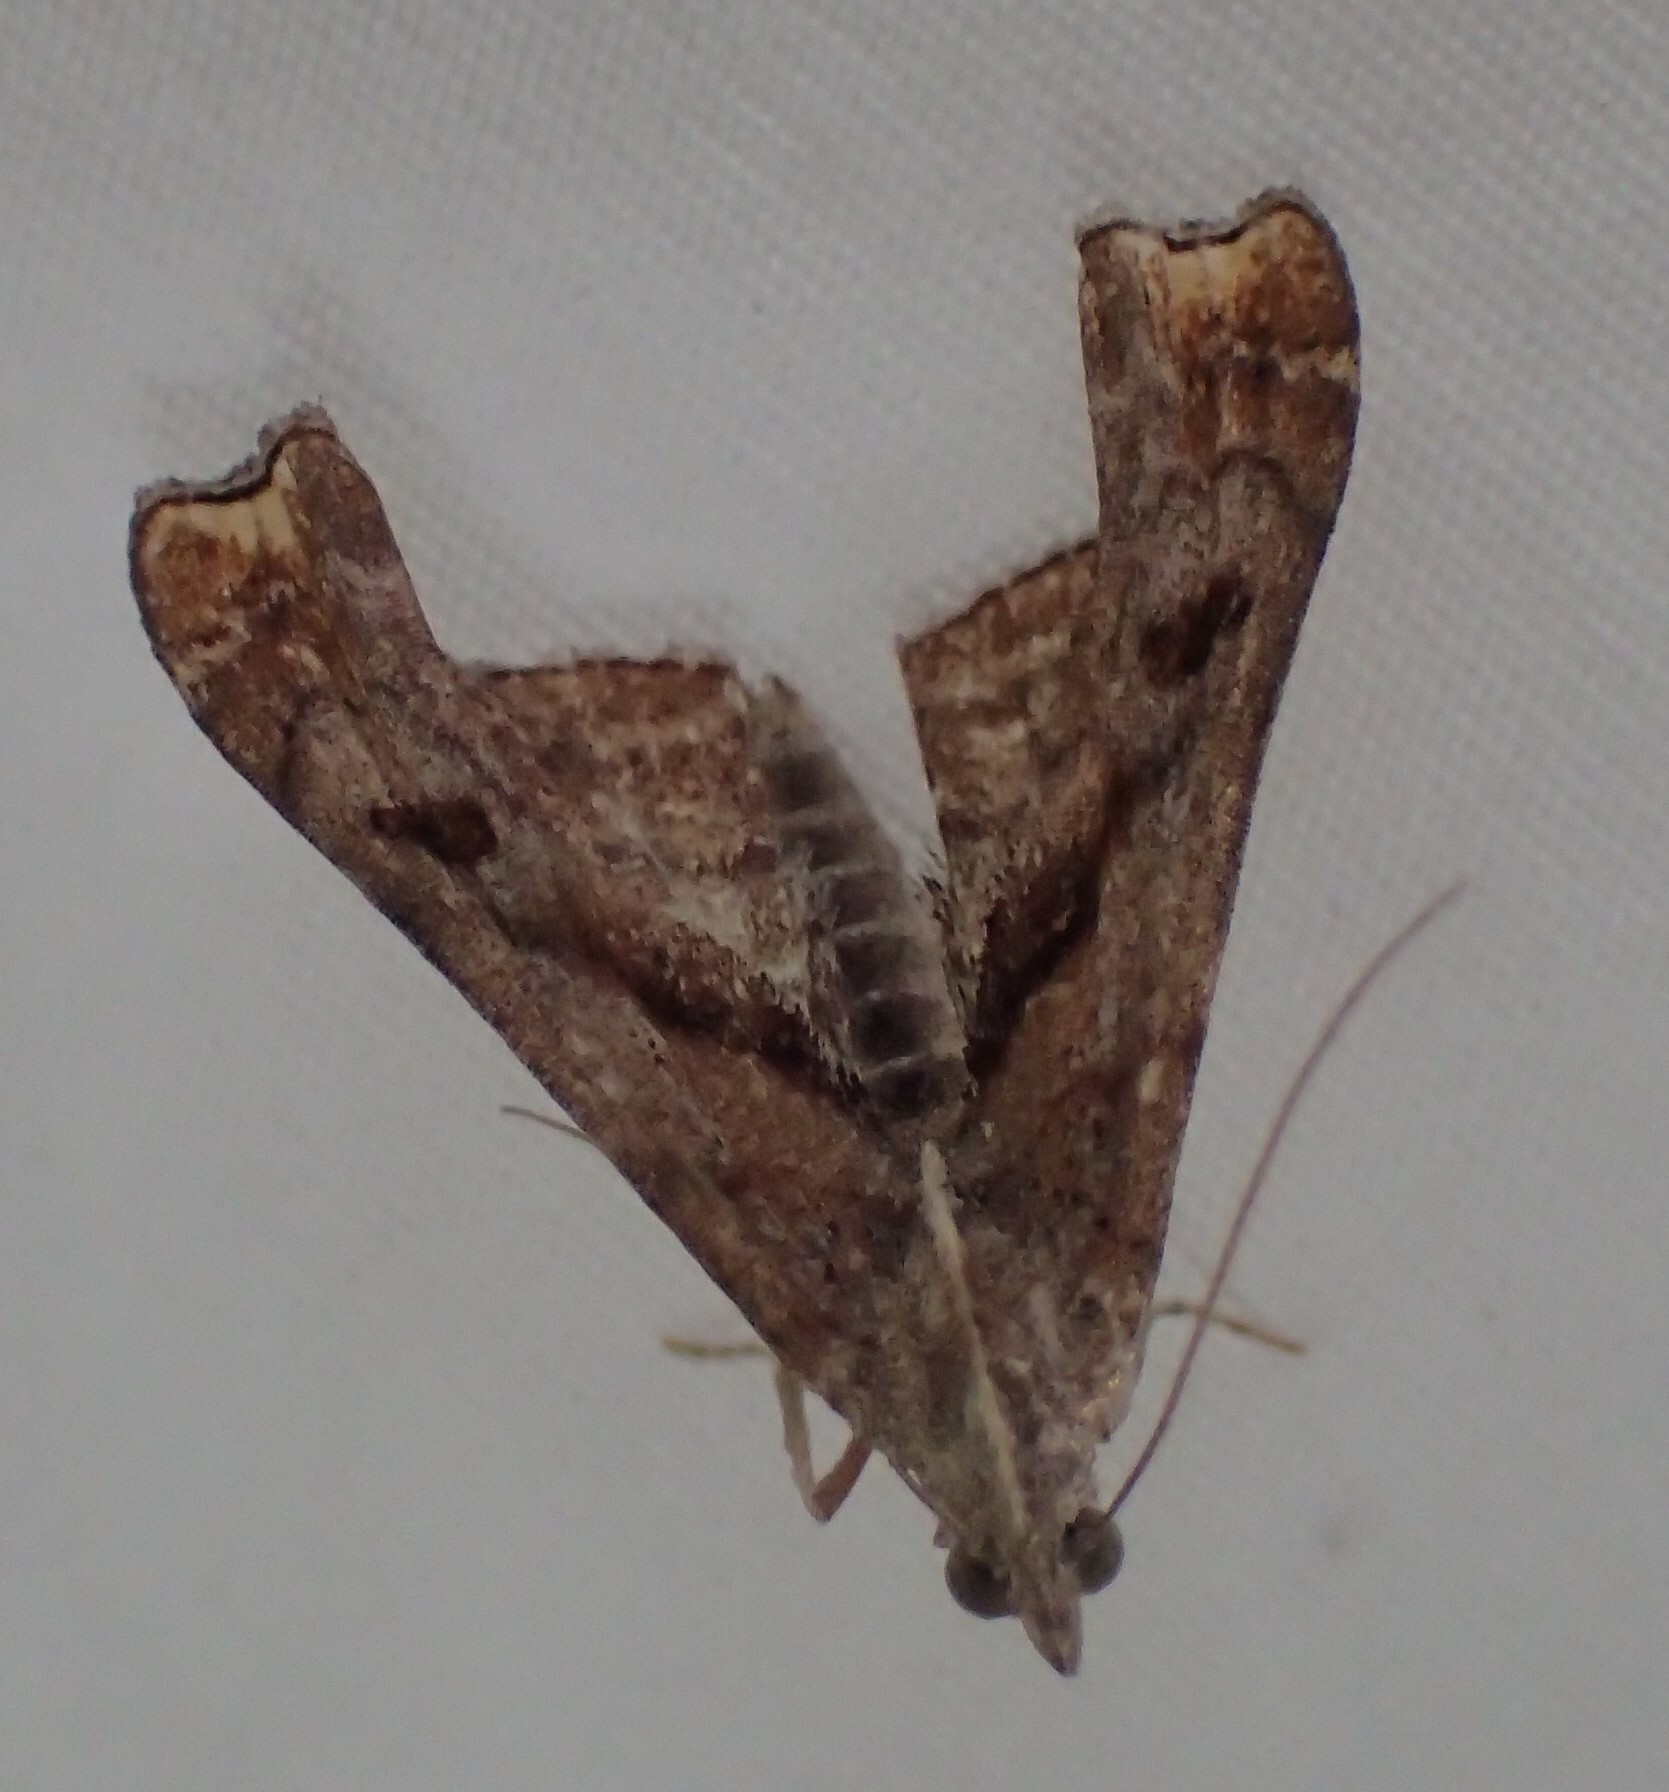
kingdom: Animalia
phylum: Arthropoda
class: Insecta
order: Lepidoptera
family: Erebidae
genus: Palthis
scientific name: Palthis angulalis
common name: Dark-spotted palthis moth
